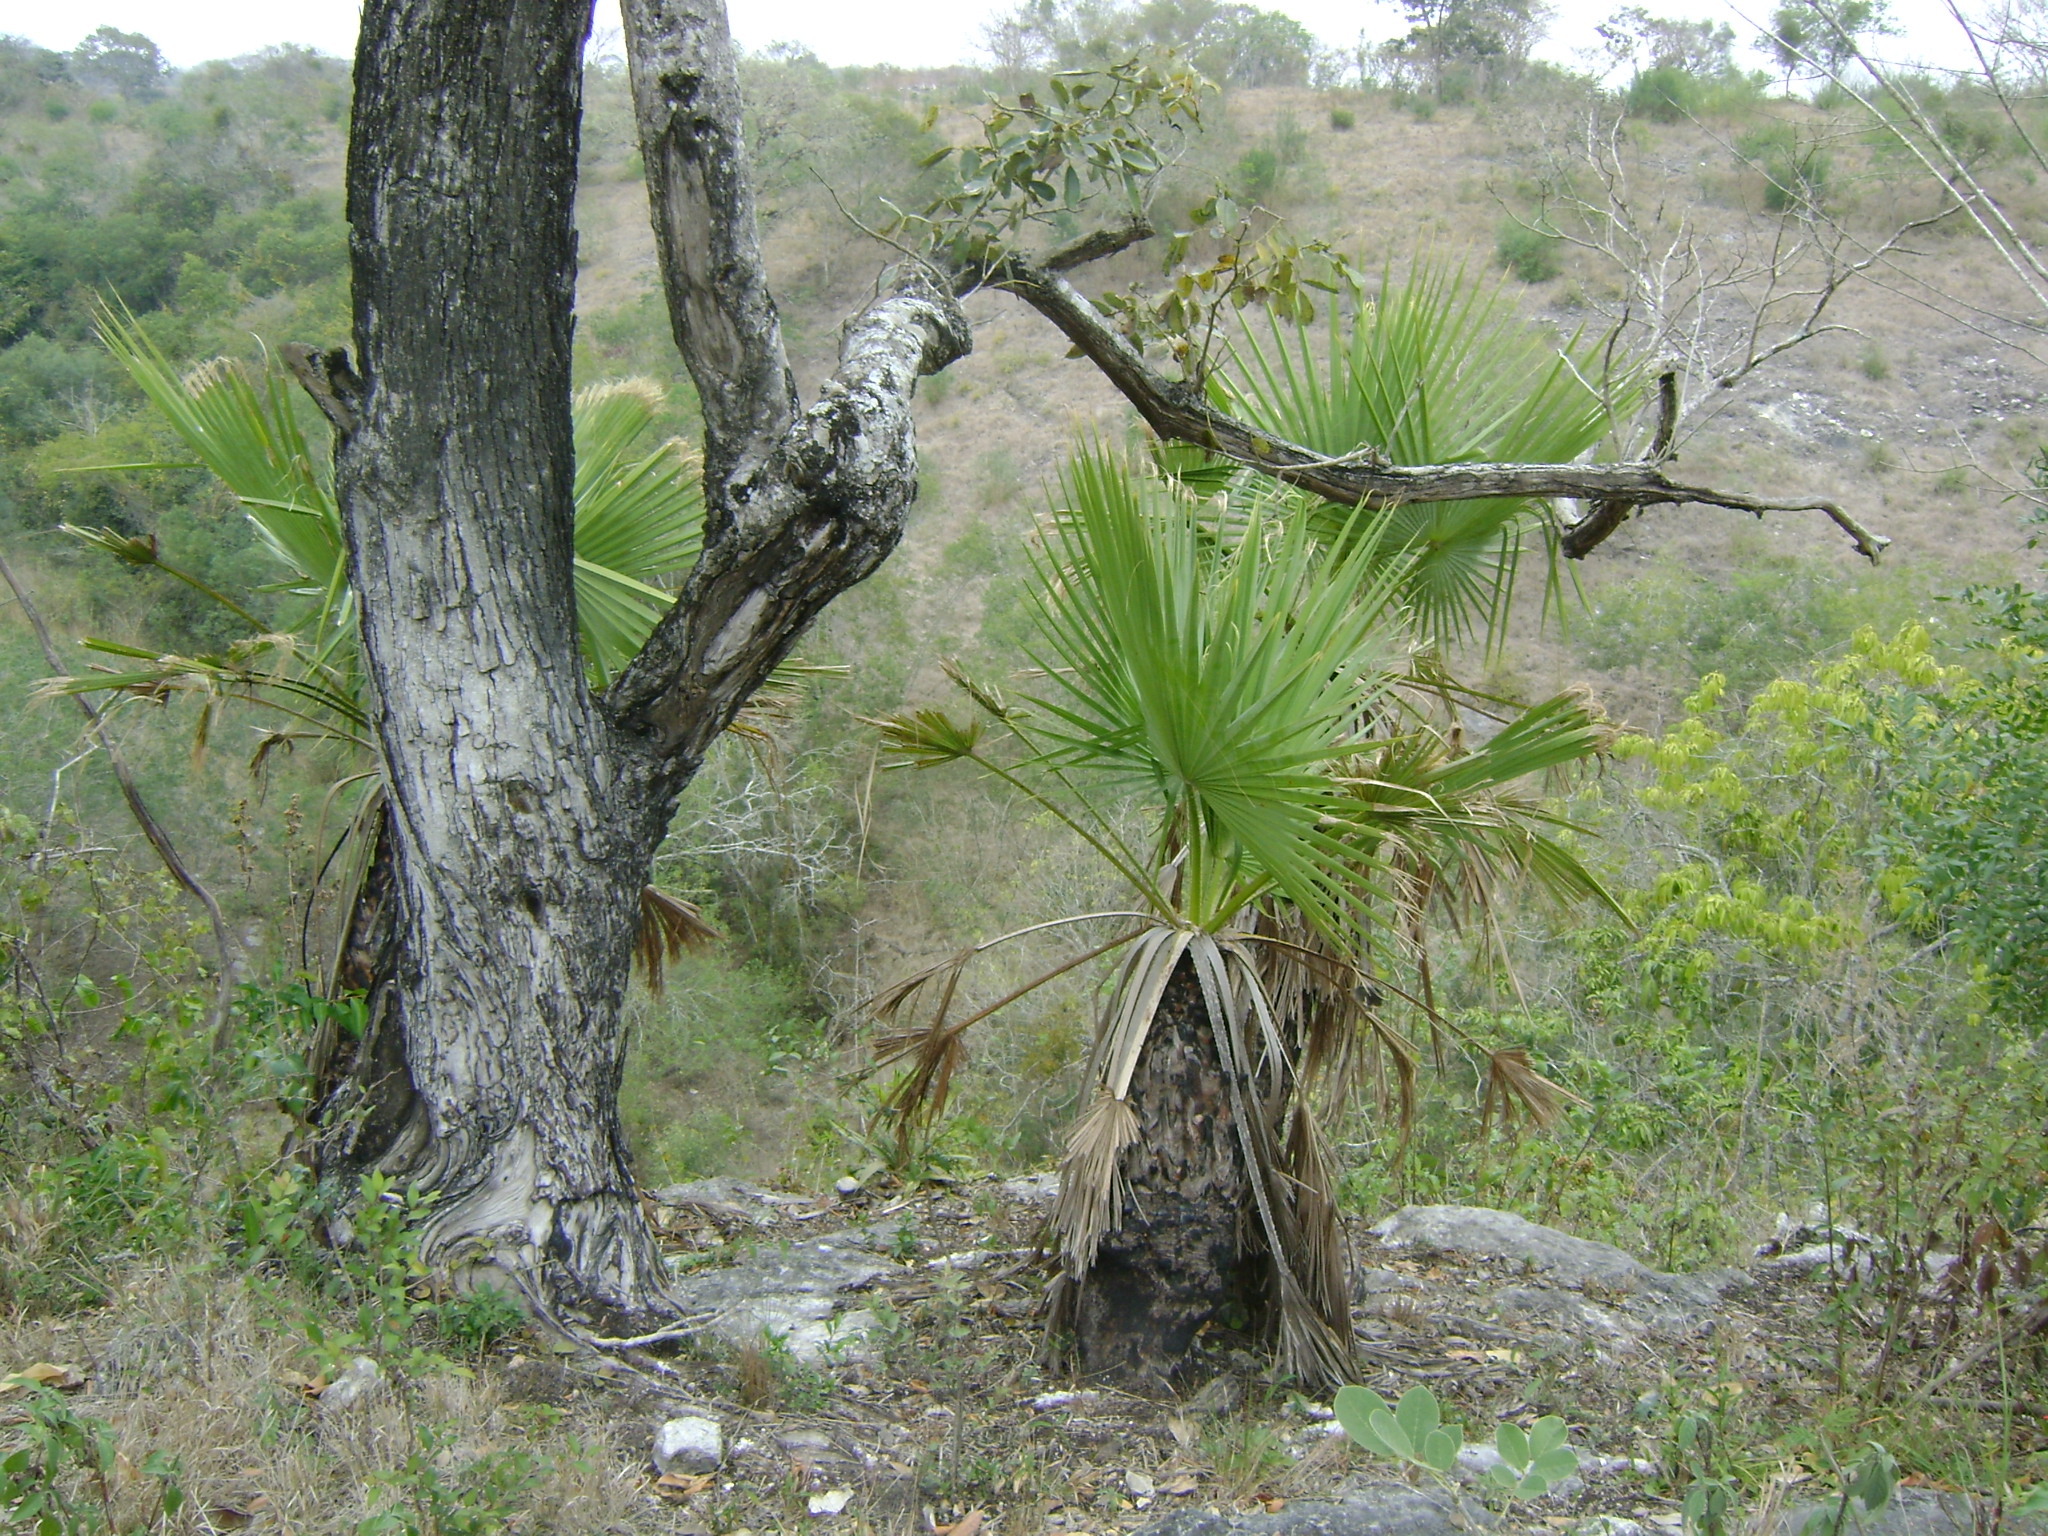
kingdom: Plantae
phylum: Tracheophyta
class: Liliopsida
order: Arecales
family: Arecaceae
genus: Brahea
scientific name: Brahea dulcis
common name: Apak palm
